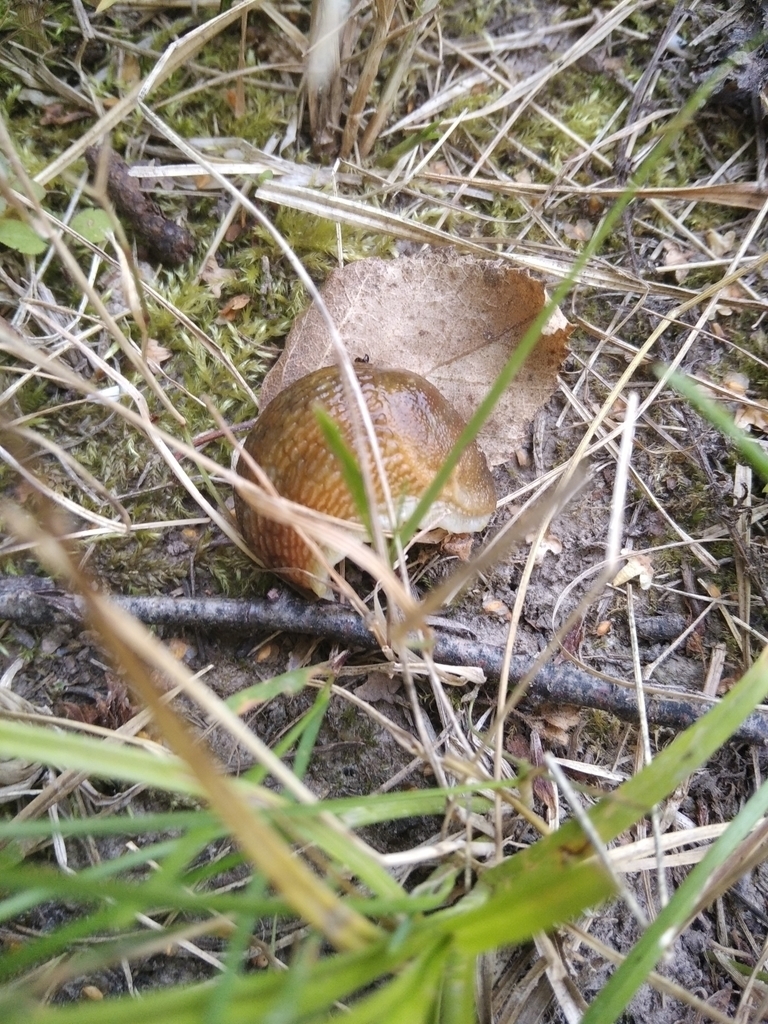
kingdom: Animalia
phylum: Mollusca
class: Gastropoda
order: Stylommatophora
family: Arionidae
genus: Arion
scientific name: Arion fuscus
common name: Northern dusky slug
